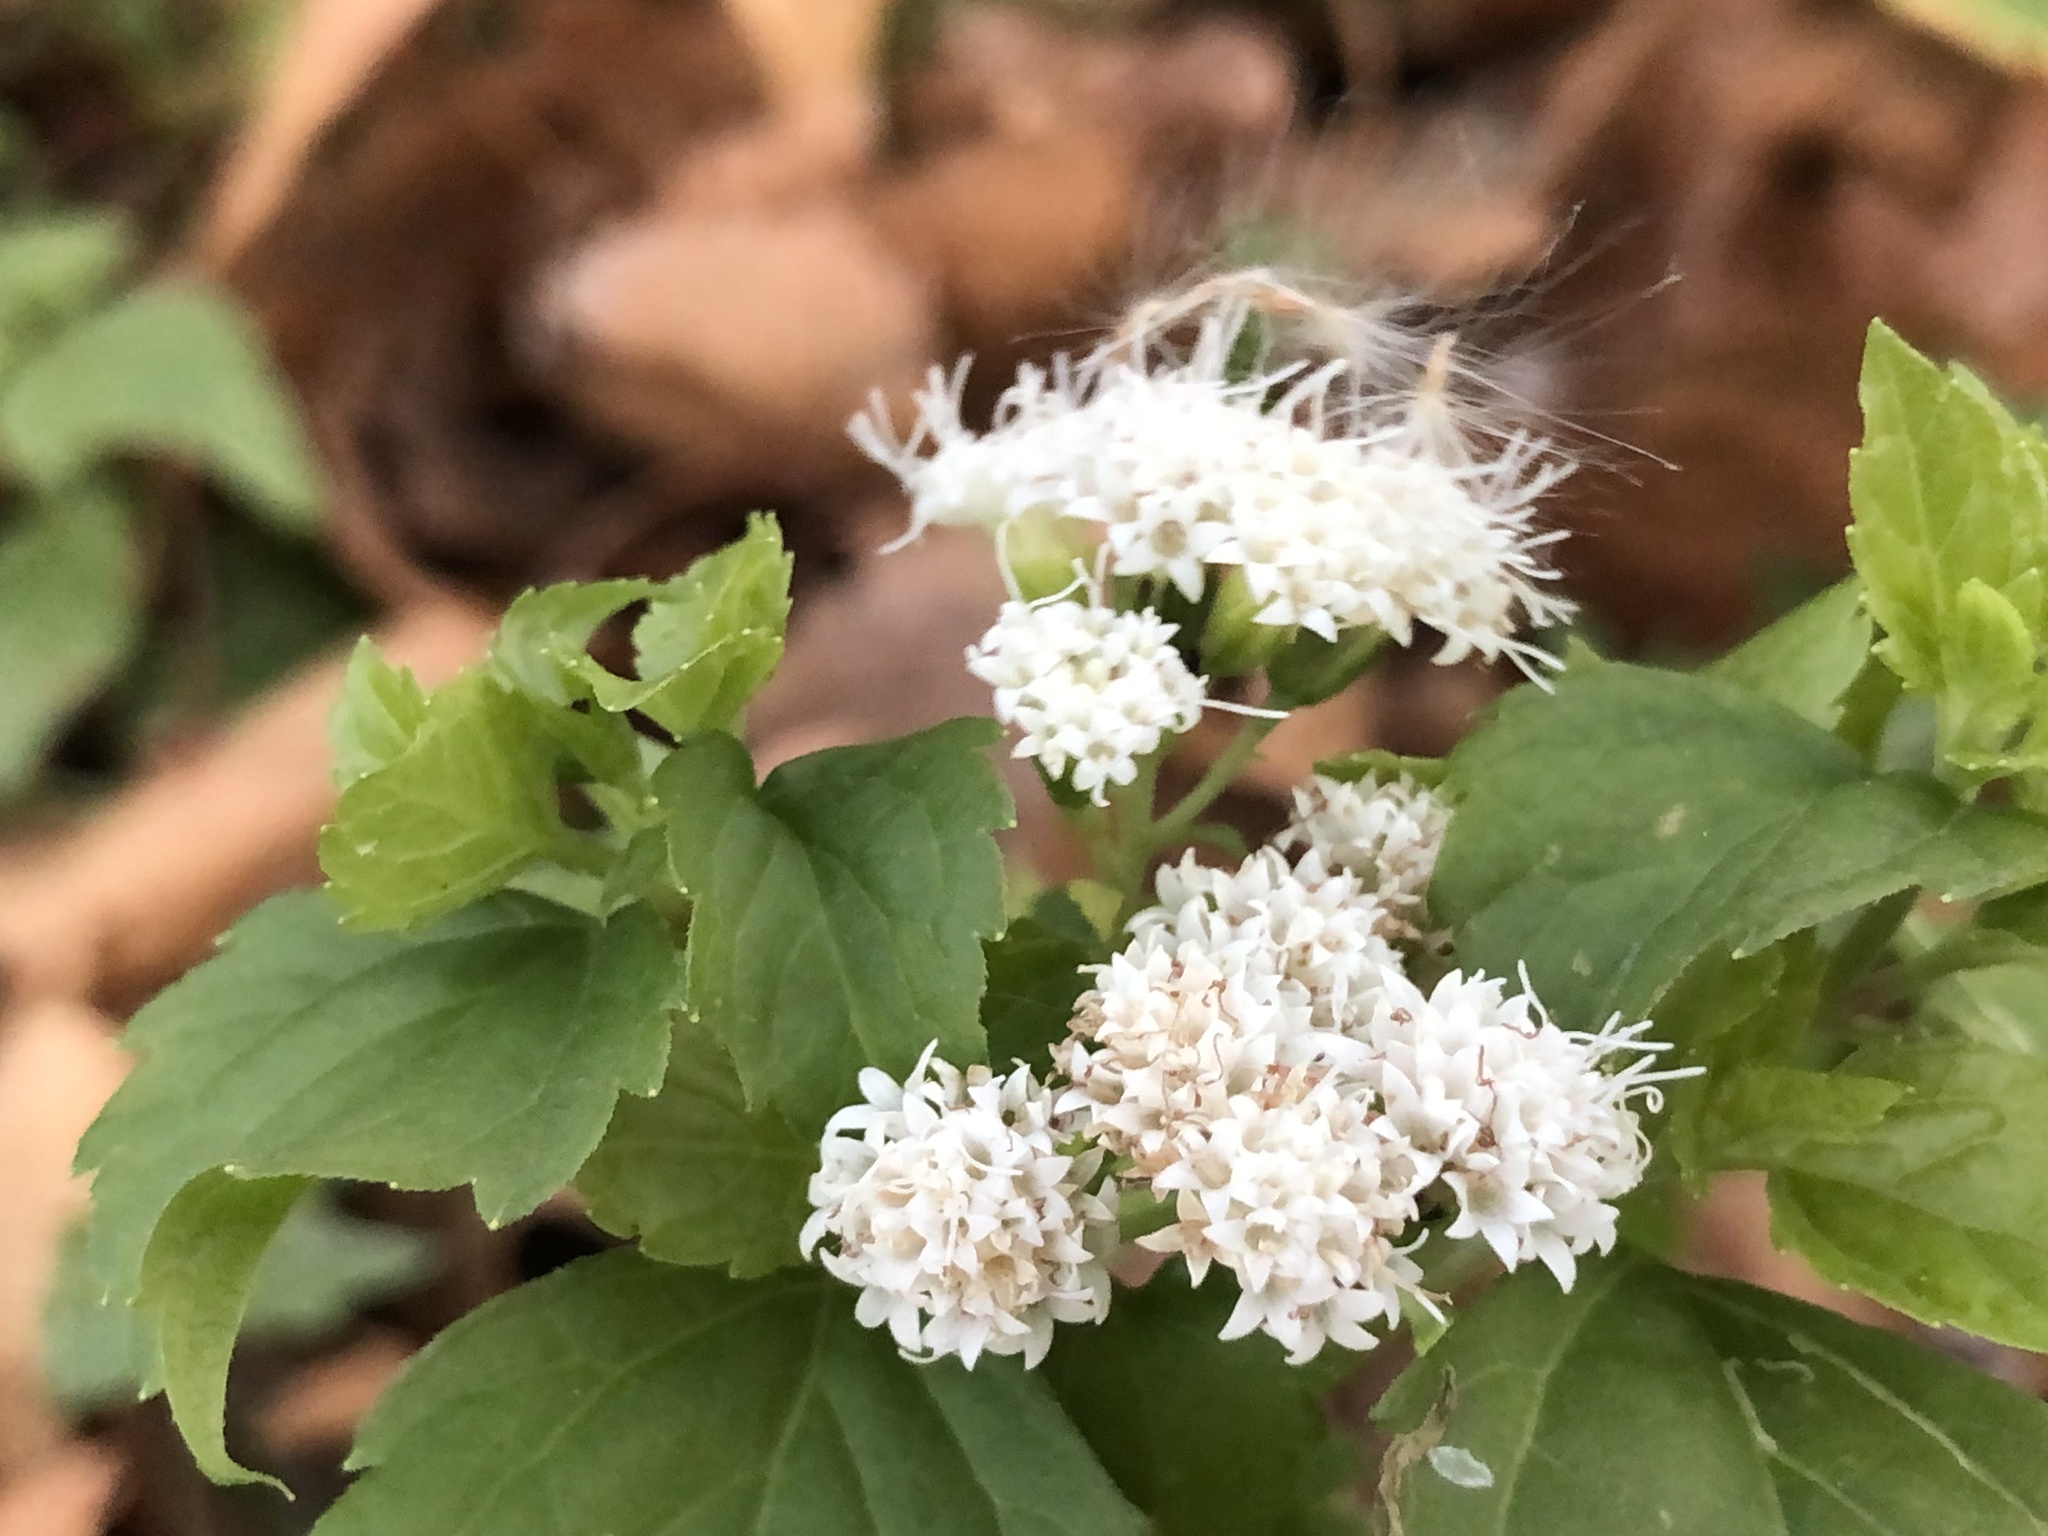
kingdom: Plantae
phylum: Tracheophyta
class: Magnoliopsida
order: Asterales
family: Asteraceae
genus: Ageratina
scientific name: Ageratina altissima
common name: White snakeroot
